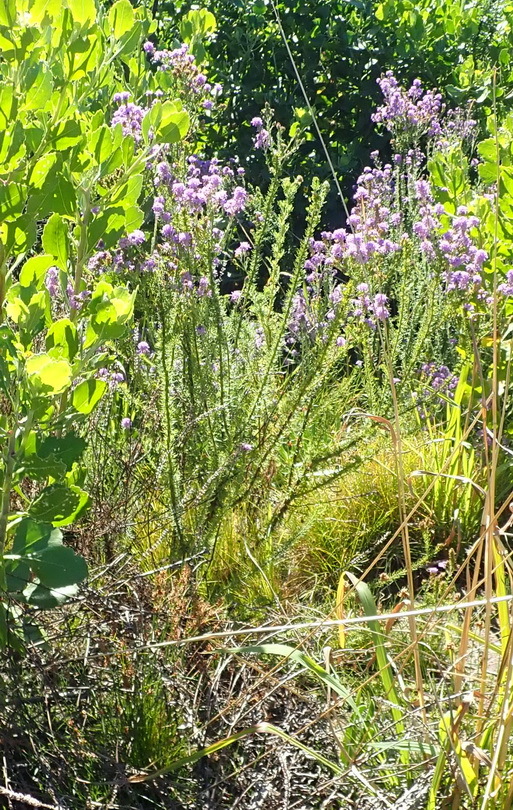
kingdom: Plantae
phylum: Tracheophyta
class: Magnoliopsida
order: Lamiales
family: Scrophulariaceae
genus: Selago
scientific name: Selago villicaulis
